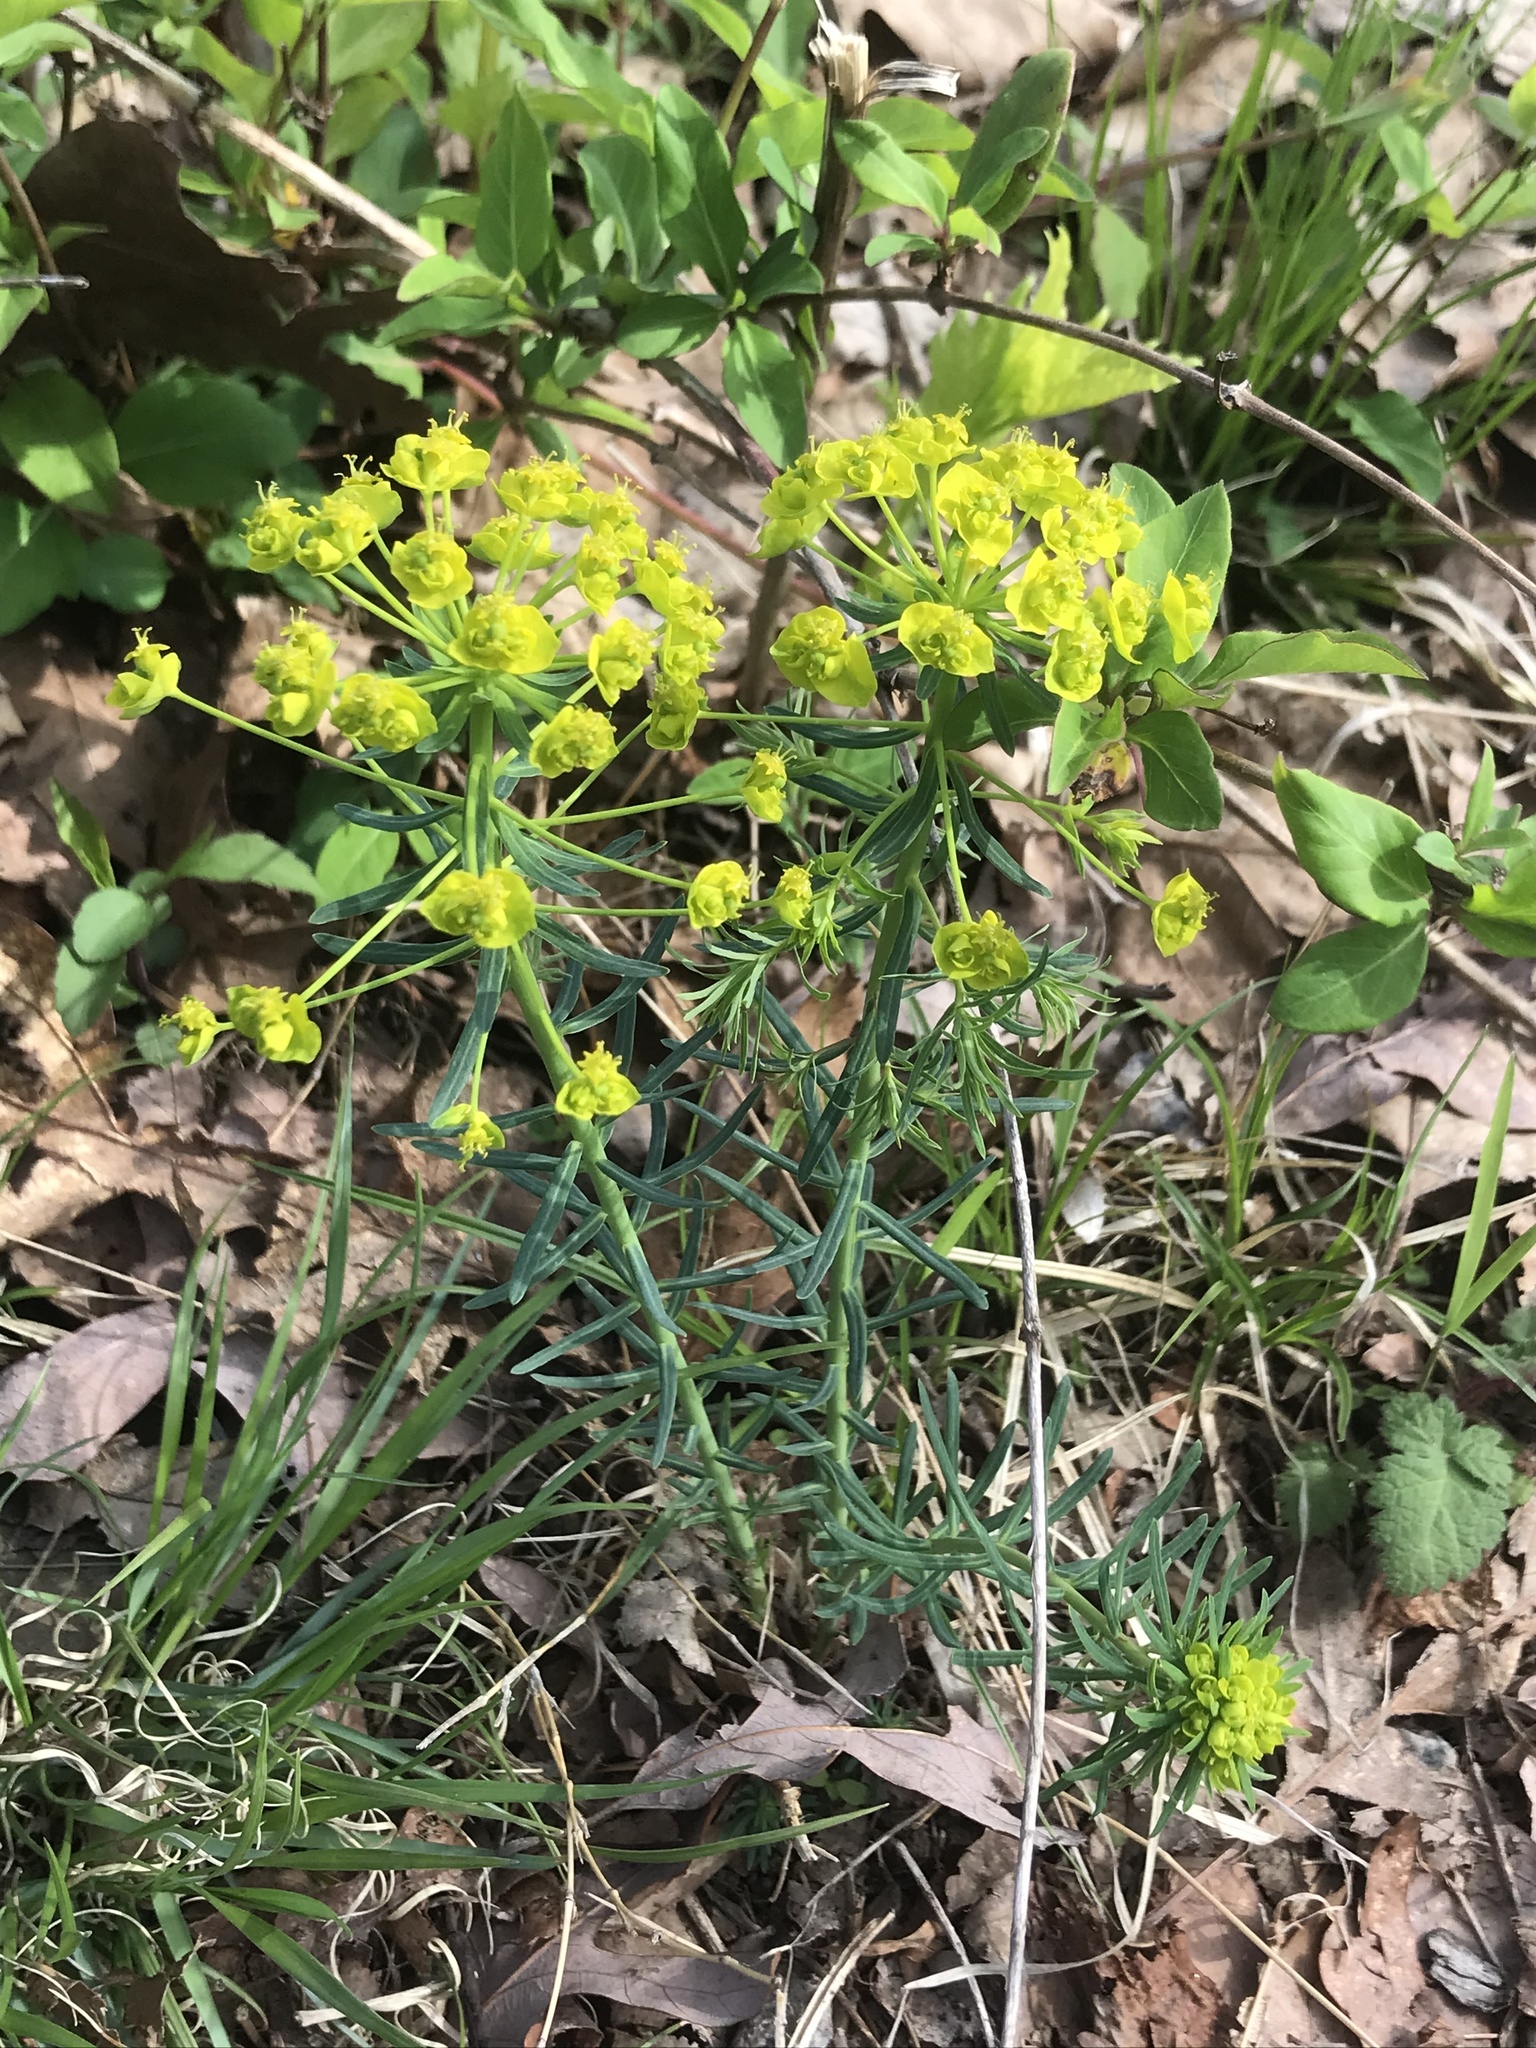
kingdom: Plantae
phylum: Tracheophyta
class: Magnoliopsida
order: Malpighiales
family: Euphorbiaceae
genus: Euphorbia
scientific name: Euphorbia cyparissias
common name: Cypress spurge
